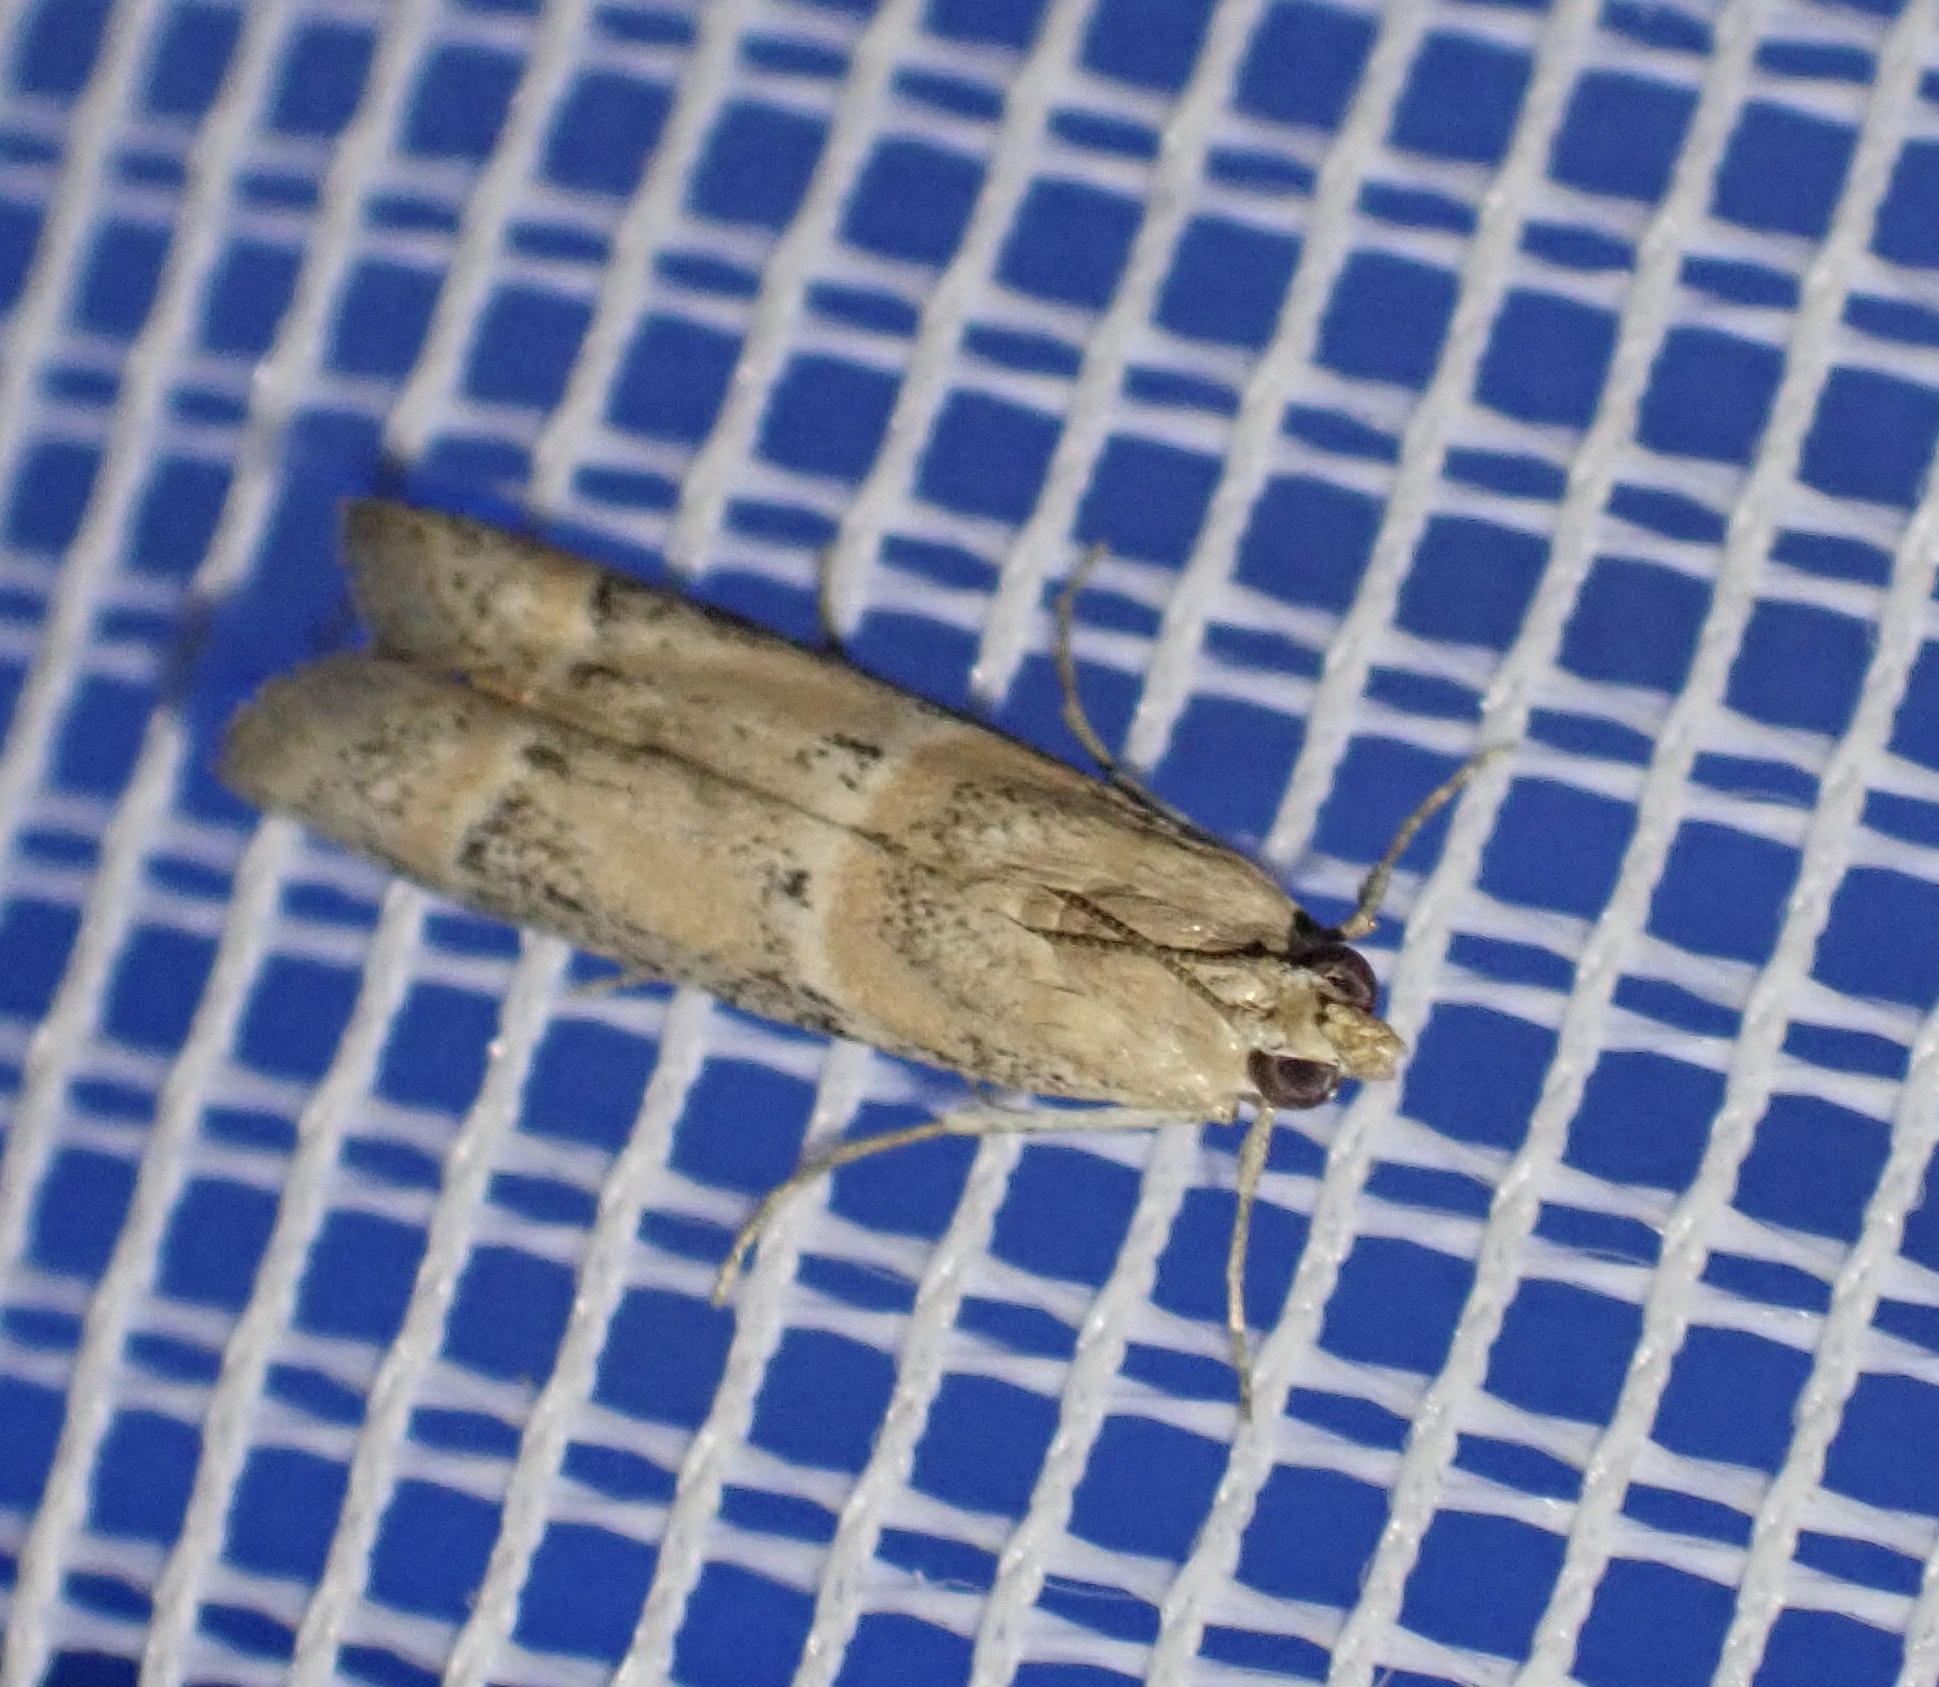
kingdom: Animalia
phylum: Arthropoda
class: Insecta
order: Lepidoptera
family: Pyralidae
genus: Ancylosis
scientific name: Ancylosis samaritanella
